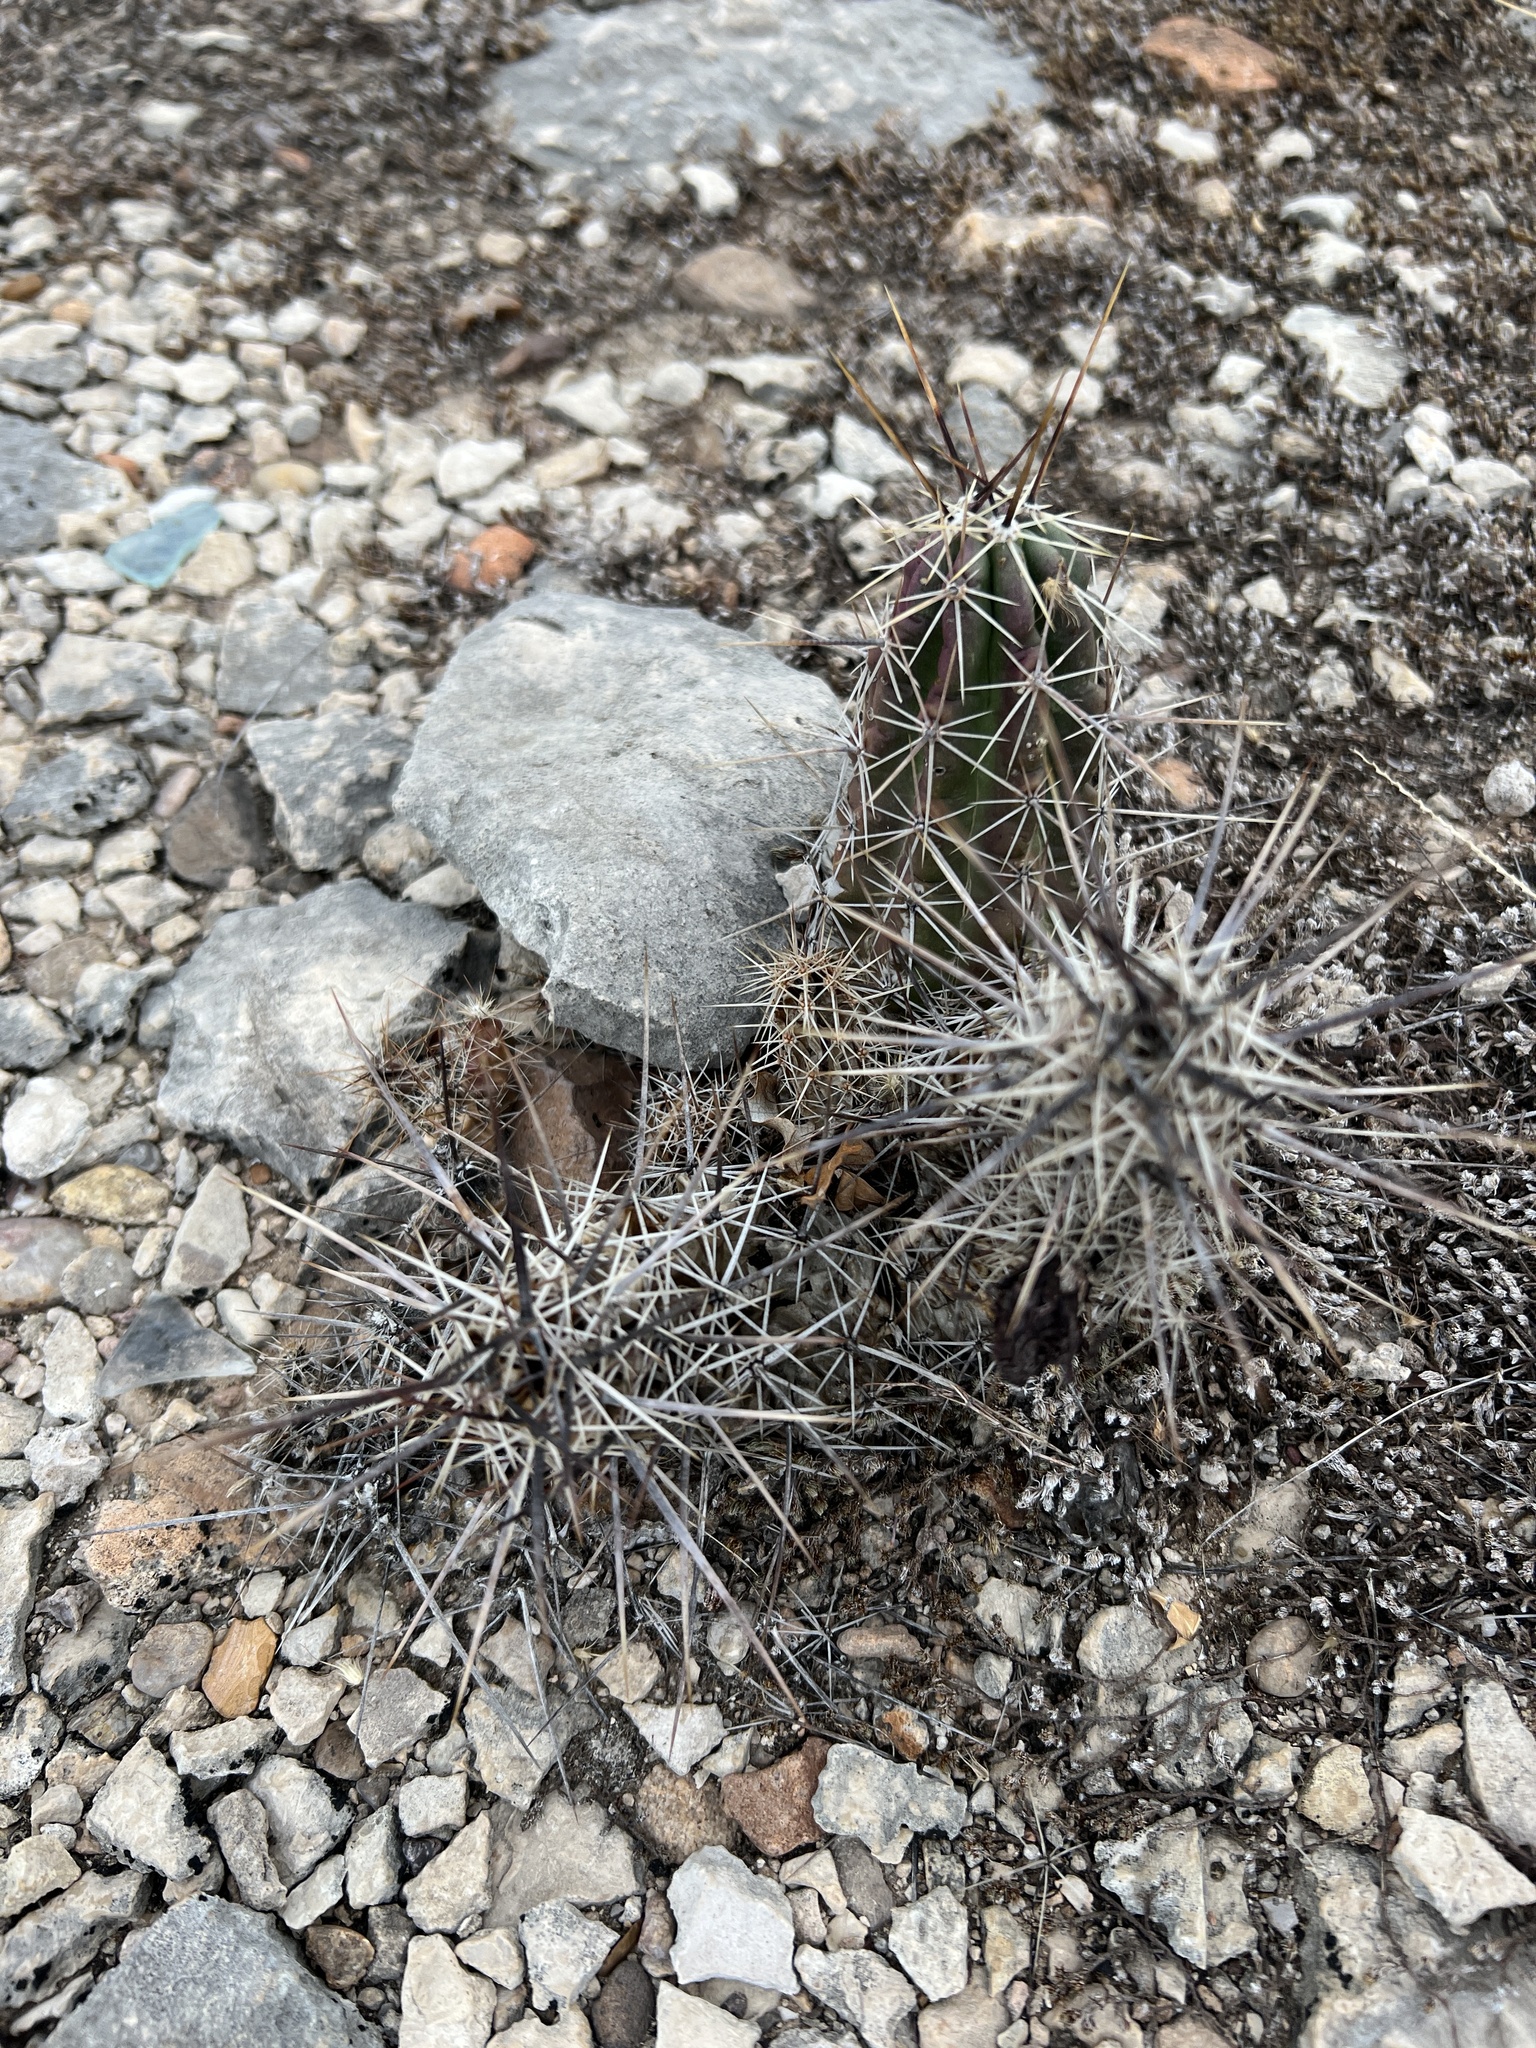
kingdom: Plantae
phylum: Tracheophyta
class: Magnoliopsida
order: Caryophyllales
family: Cactaceae
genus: Echinocereus
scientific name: Echinocereus enneacanthus
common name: Pitaya
